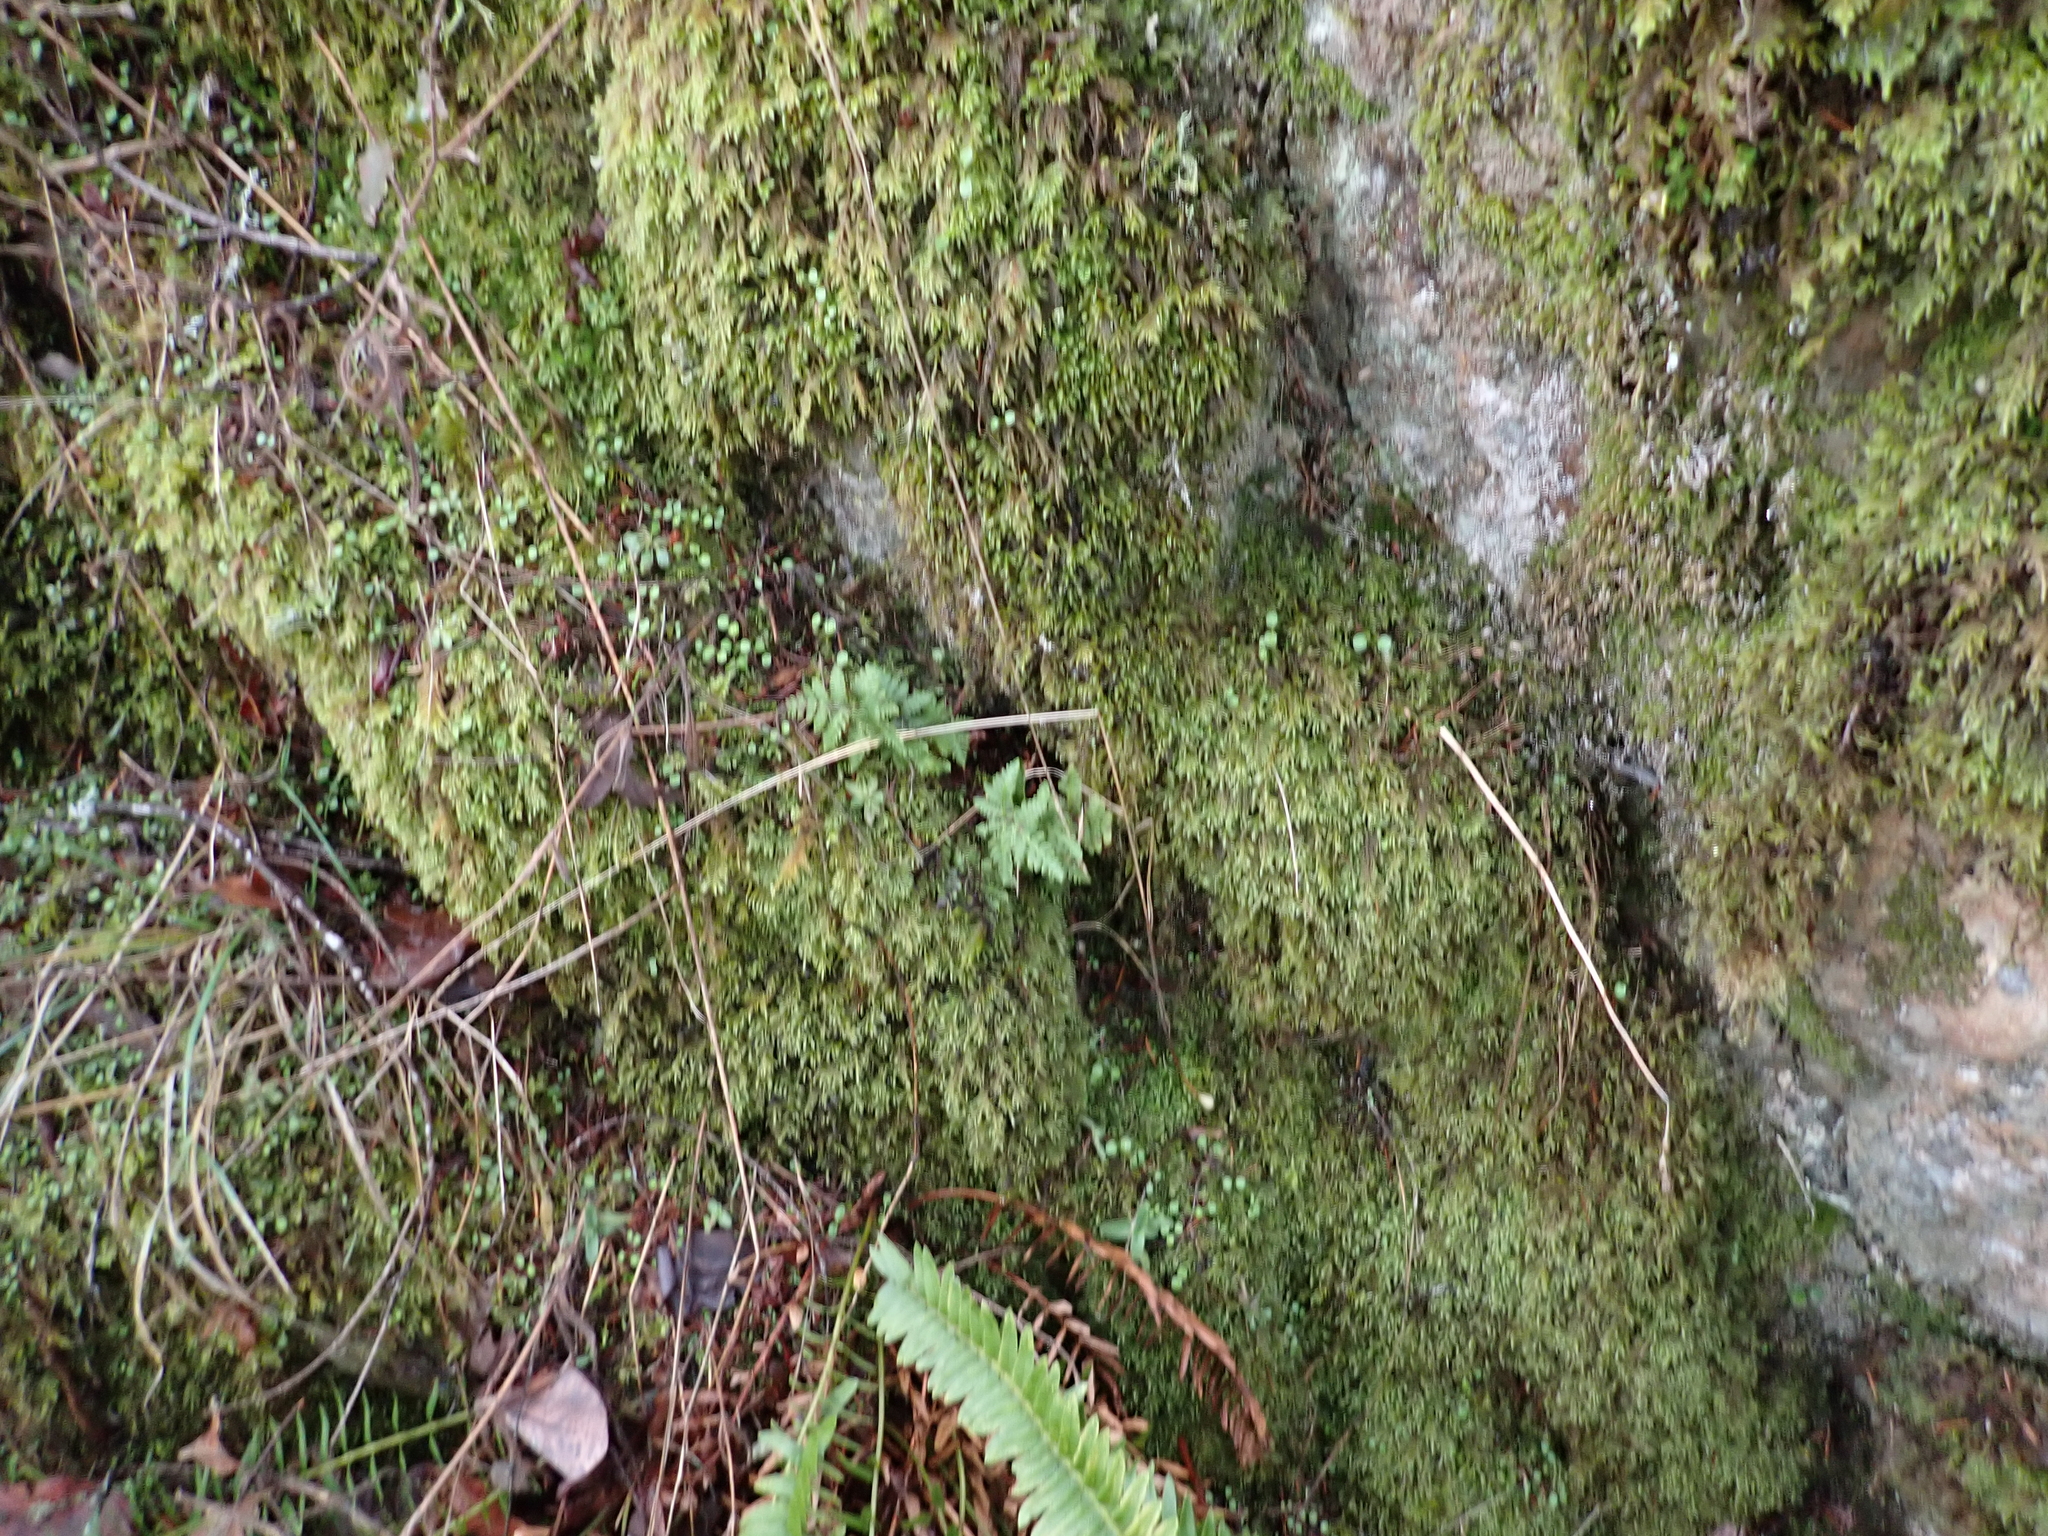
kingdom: Plantae
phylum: Tracheophyta
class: Polypodiopsida
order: Polypodiales
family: Pteridaceae
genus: Pentagramma
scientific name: Pentagramma triangularis
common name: Gold fern
